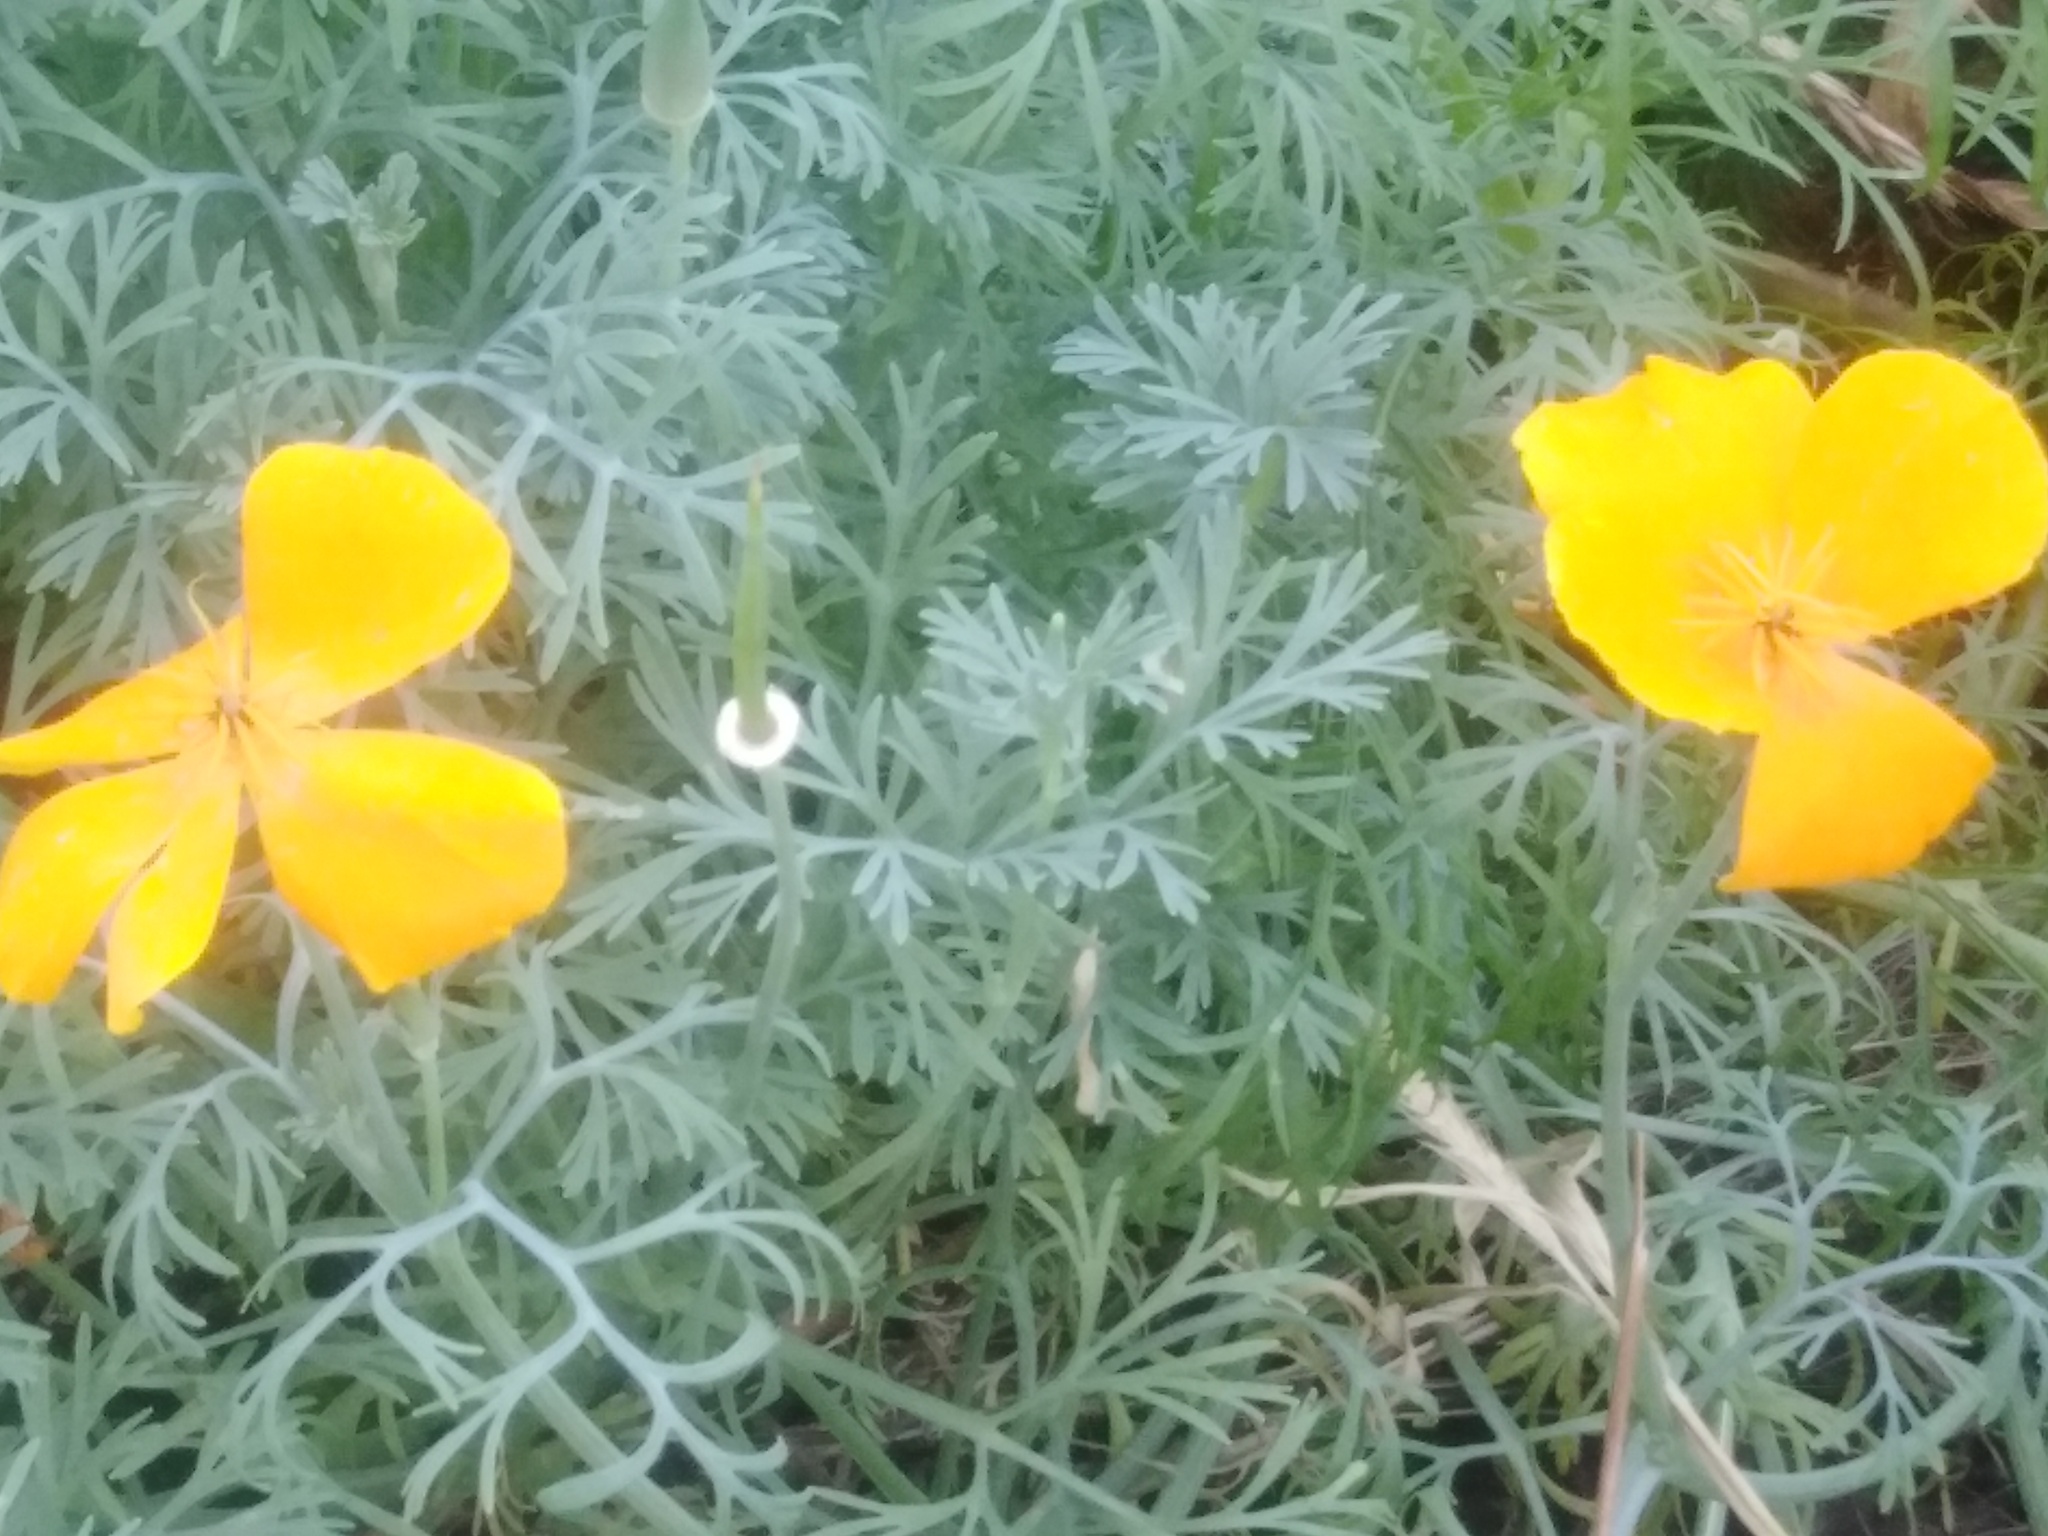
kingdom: Plantae
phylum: Tracheophyta
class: Magnoliopsida
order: Ranunculales
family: Papaveraceae
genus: Eschscholzia
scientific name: Eschscholzia californica
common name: California poppy
